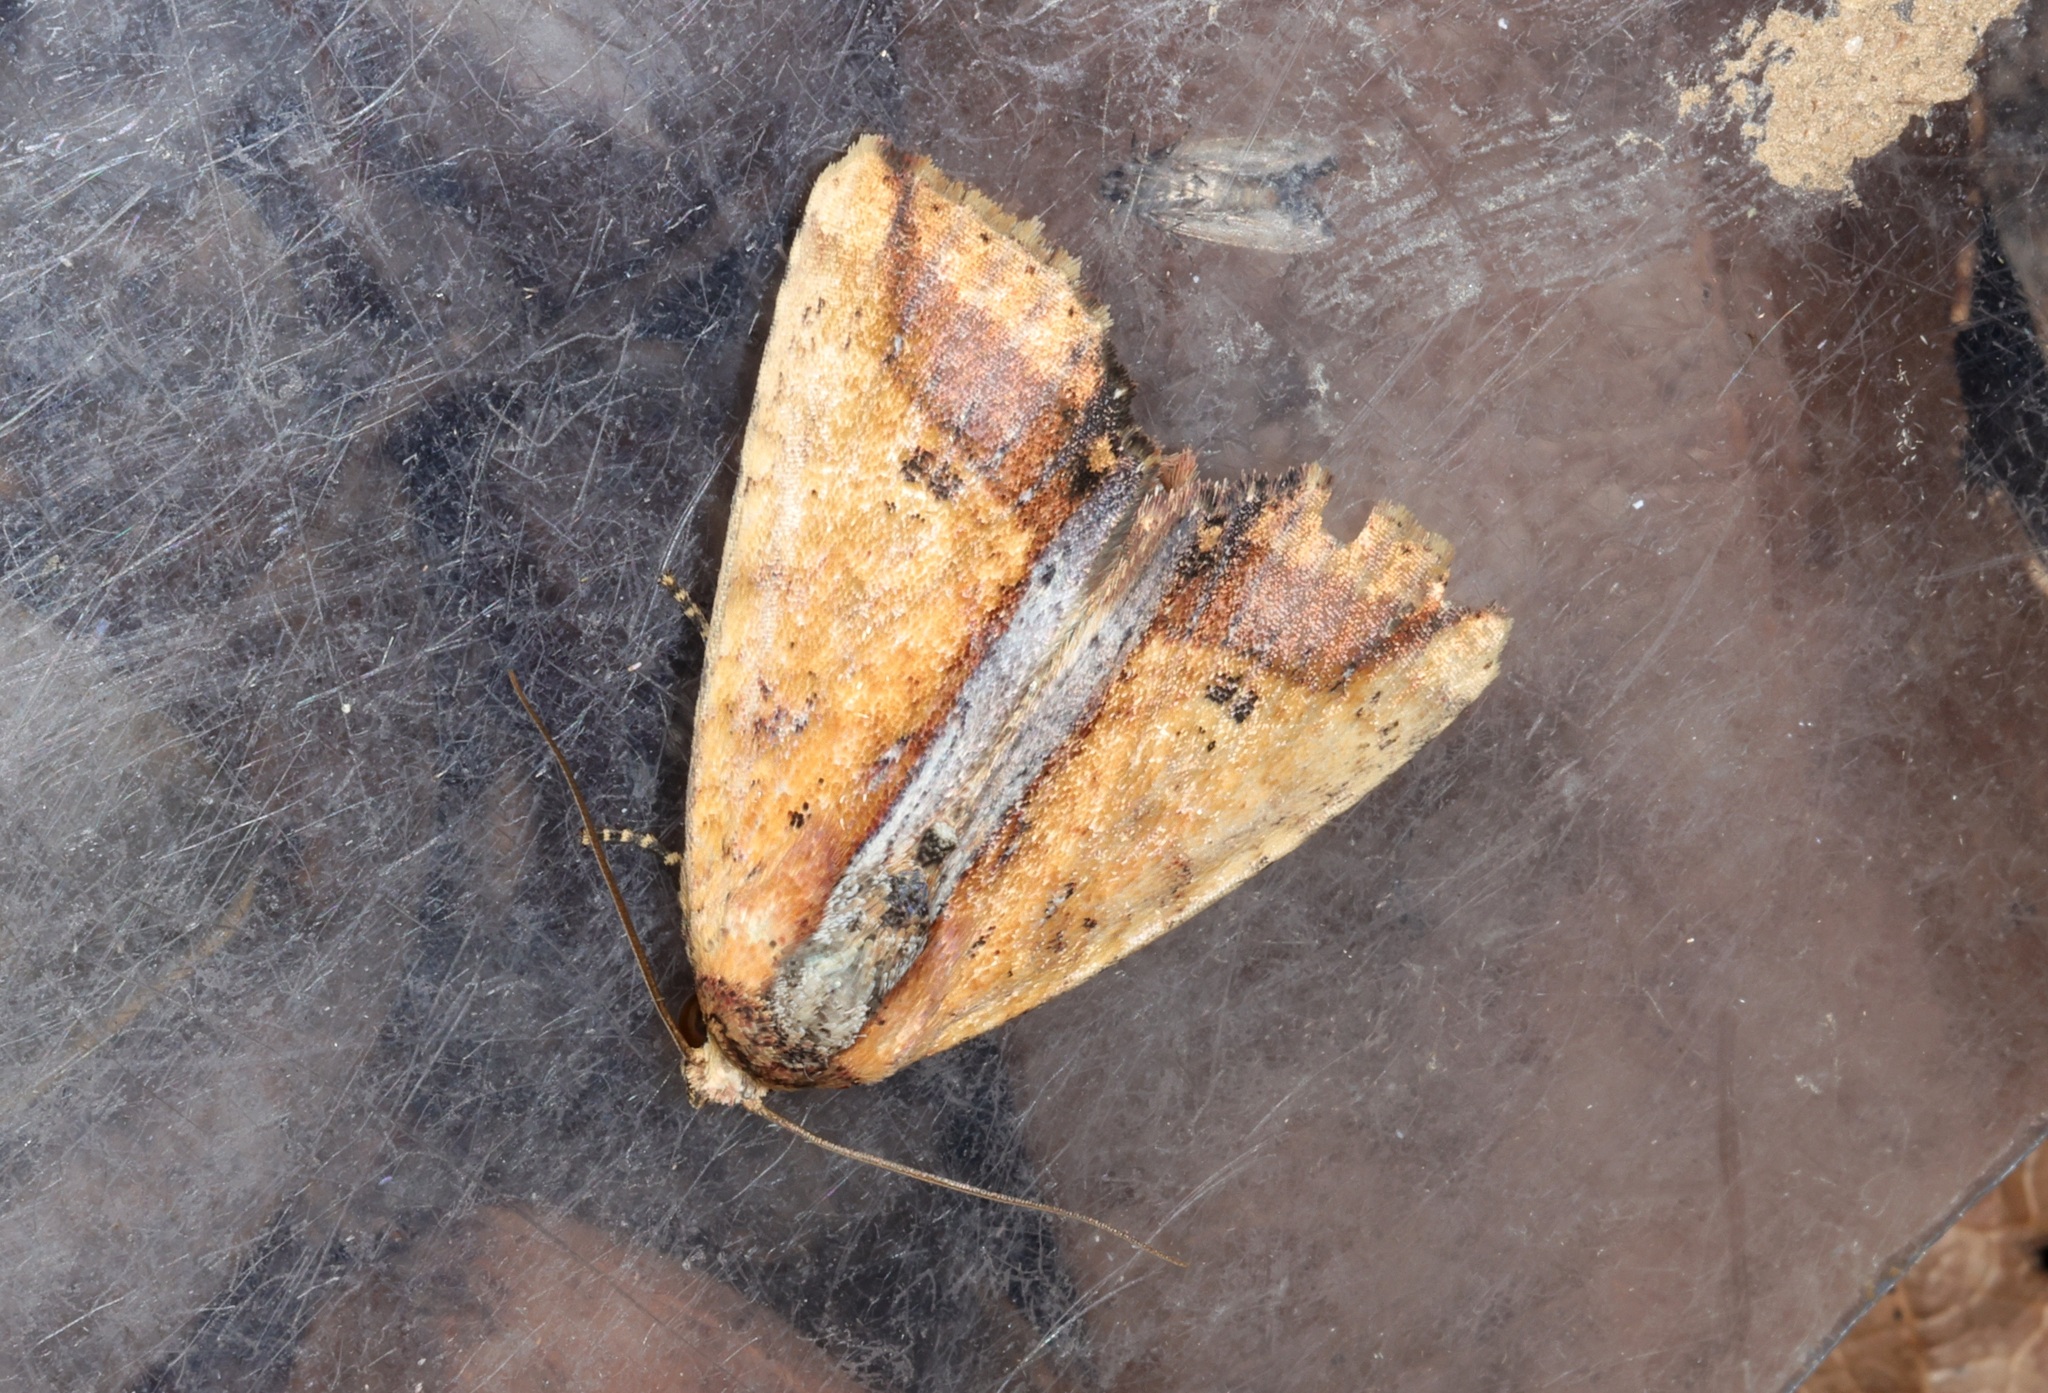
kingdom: Animalia
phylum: Arthropoda
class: Insecta
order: Lepidoptera
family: Noctuidae
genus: Bagada
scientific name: Bagada spicea
